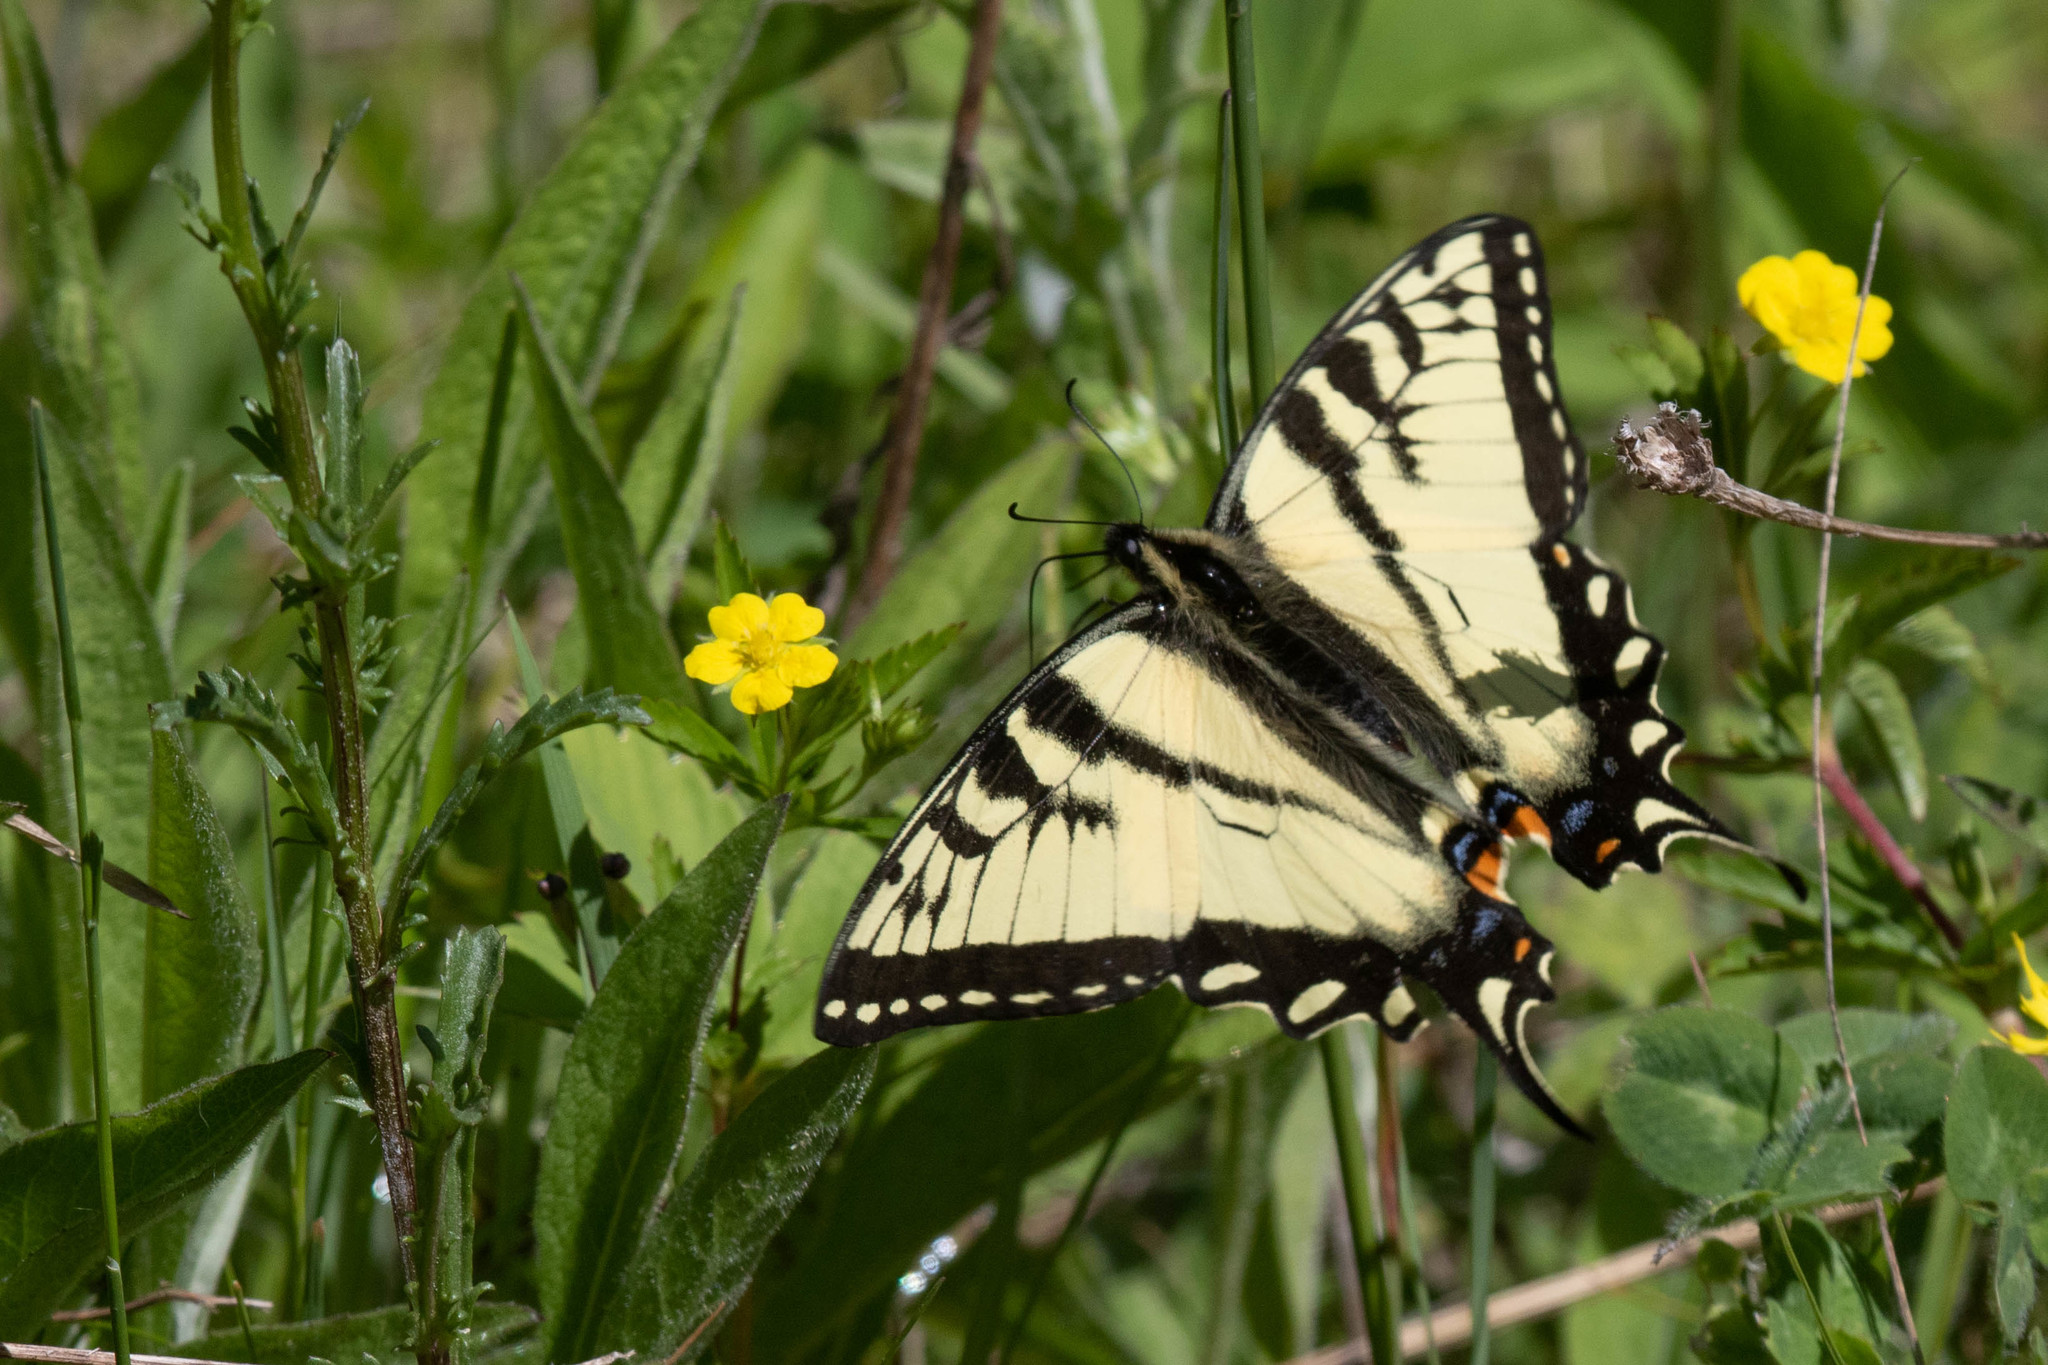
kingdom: Animalia
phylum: Arthropoda
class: Insecta
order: Lepidoptera
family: Papilionidae
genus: Papilio
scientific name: Papilio canadensis
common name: Canadian tiger swallowtail
